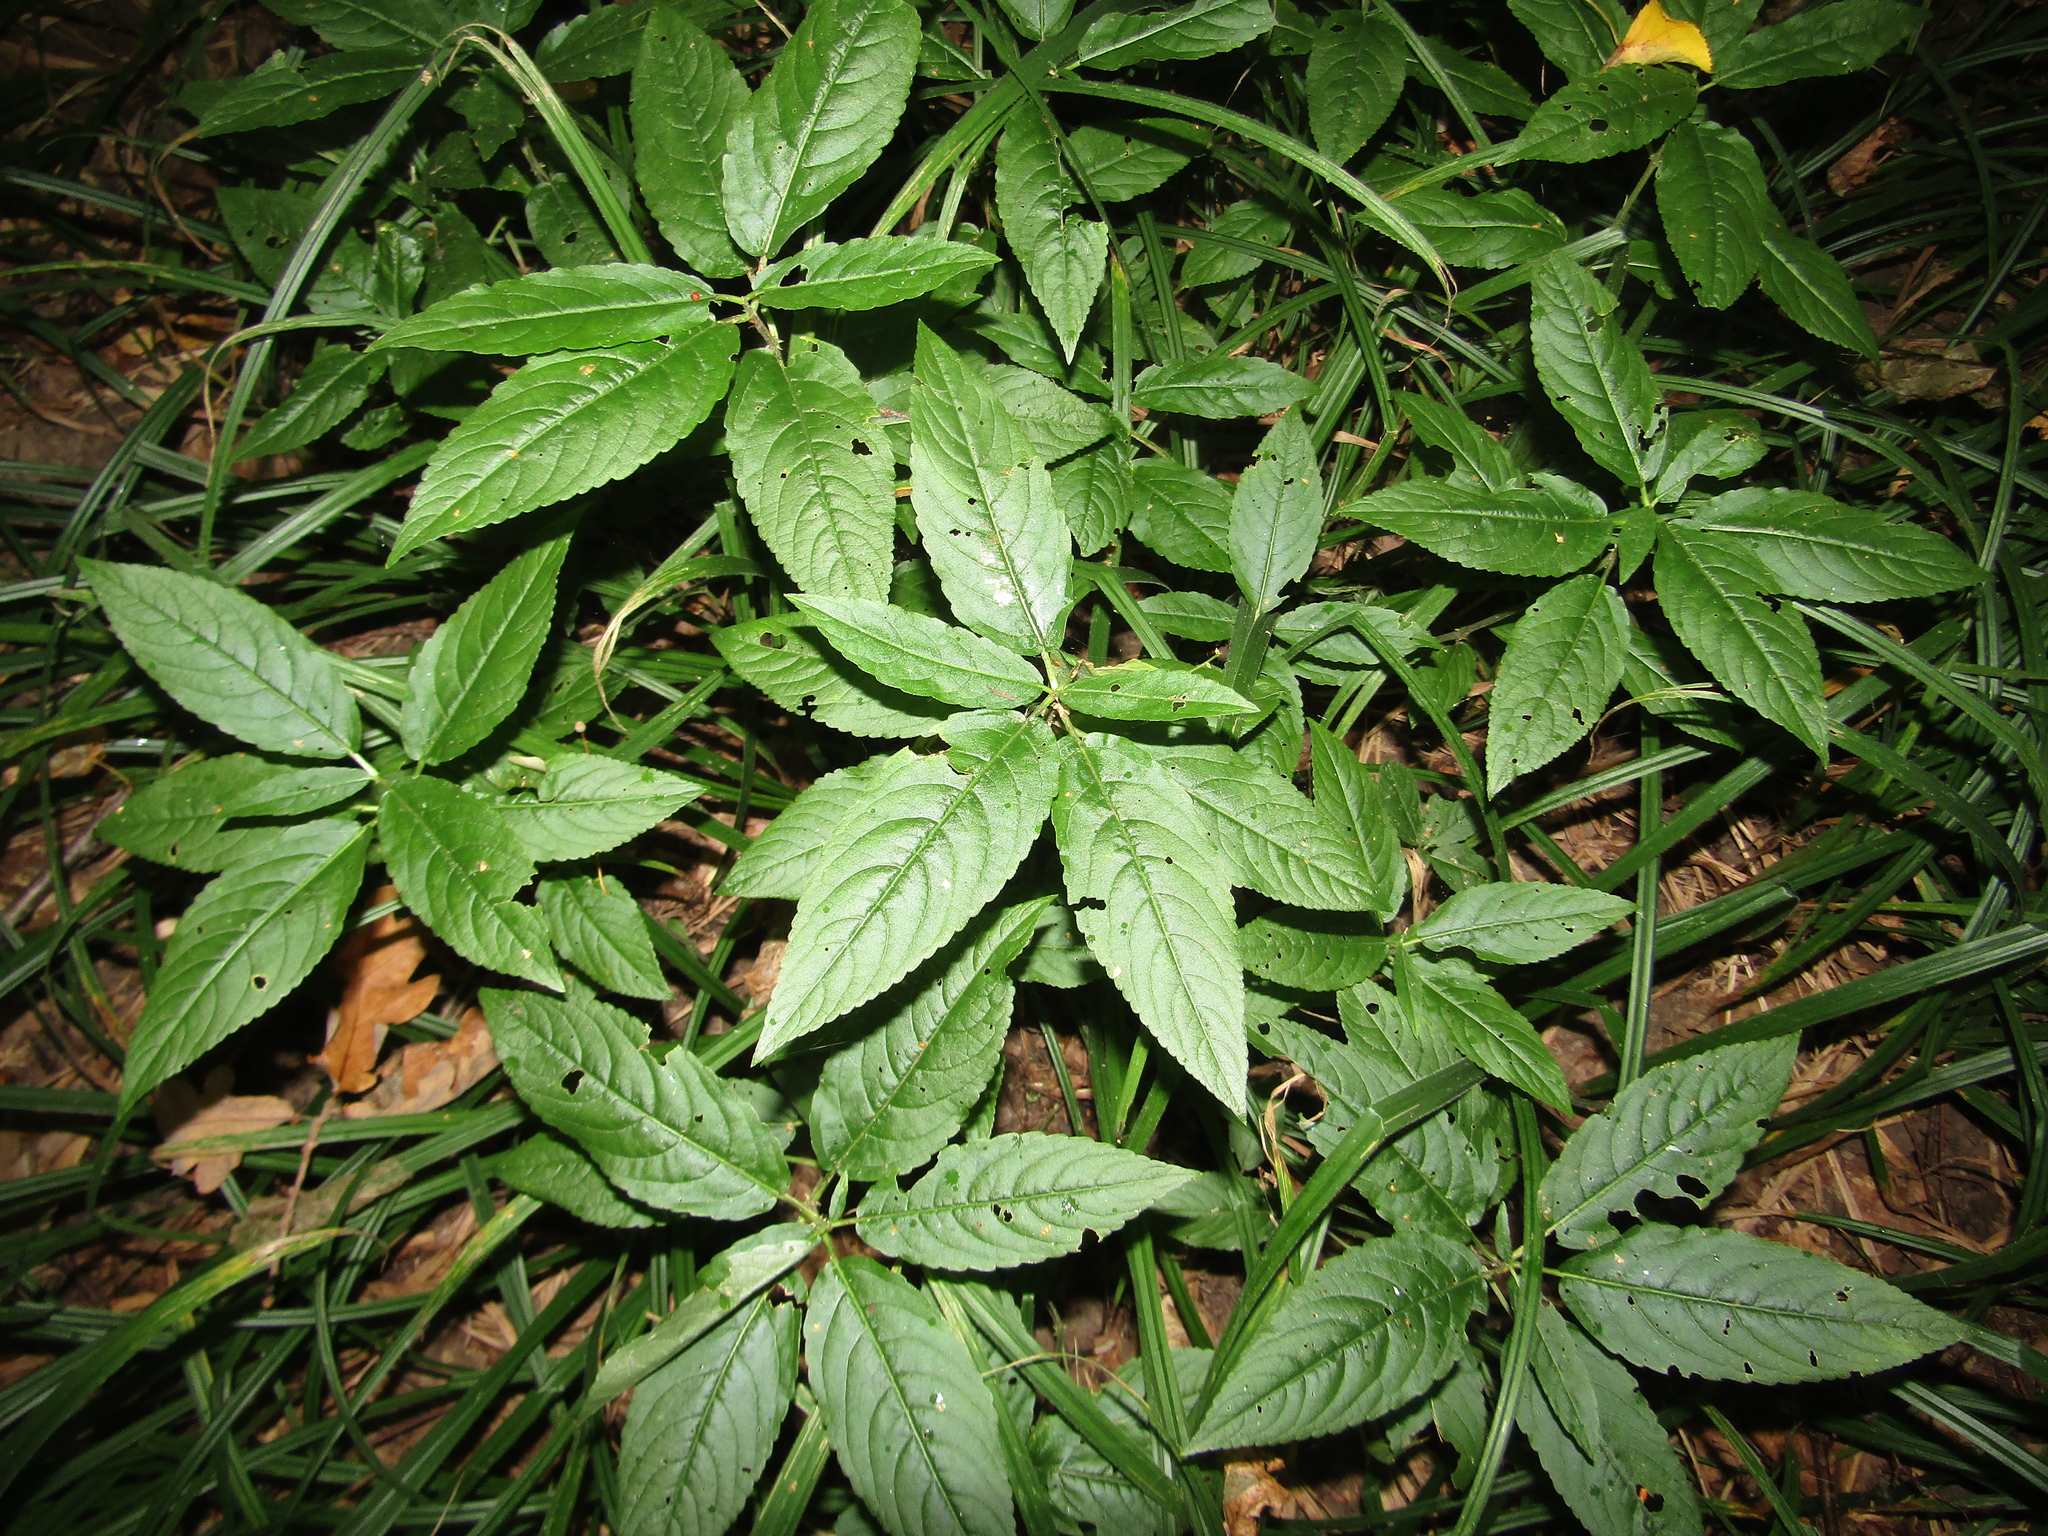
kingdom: Plantae
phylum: Tracheophyta
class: Magnoliopsida
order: Malpighiales
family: Euphorbiaceae
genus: Mercurialis
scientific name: Mercurialis perennis
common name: Dog mercury
